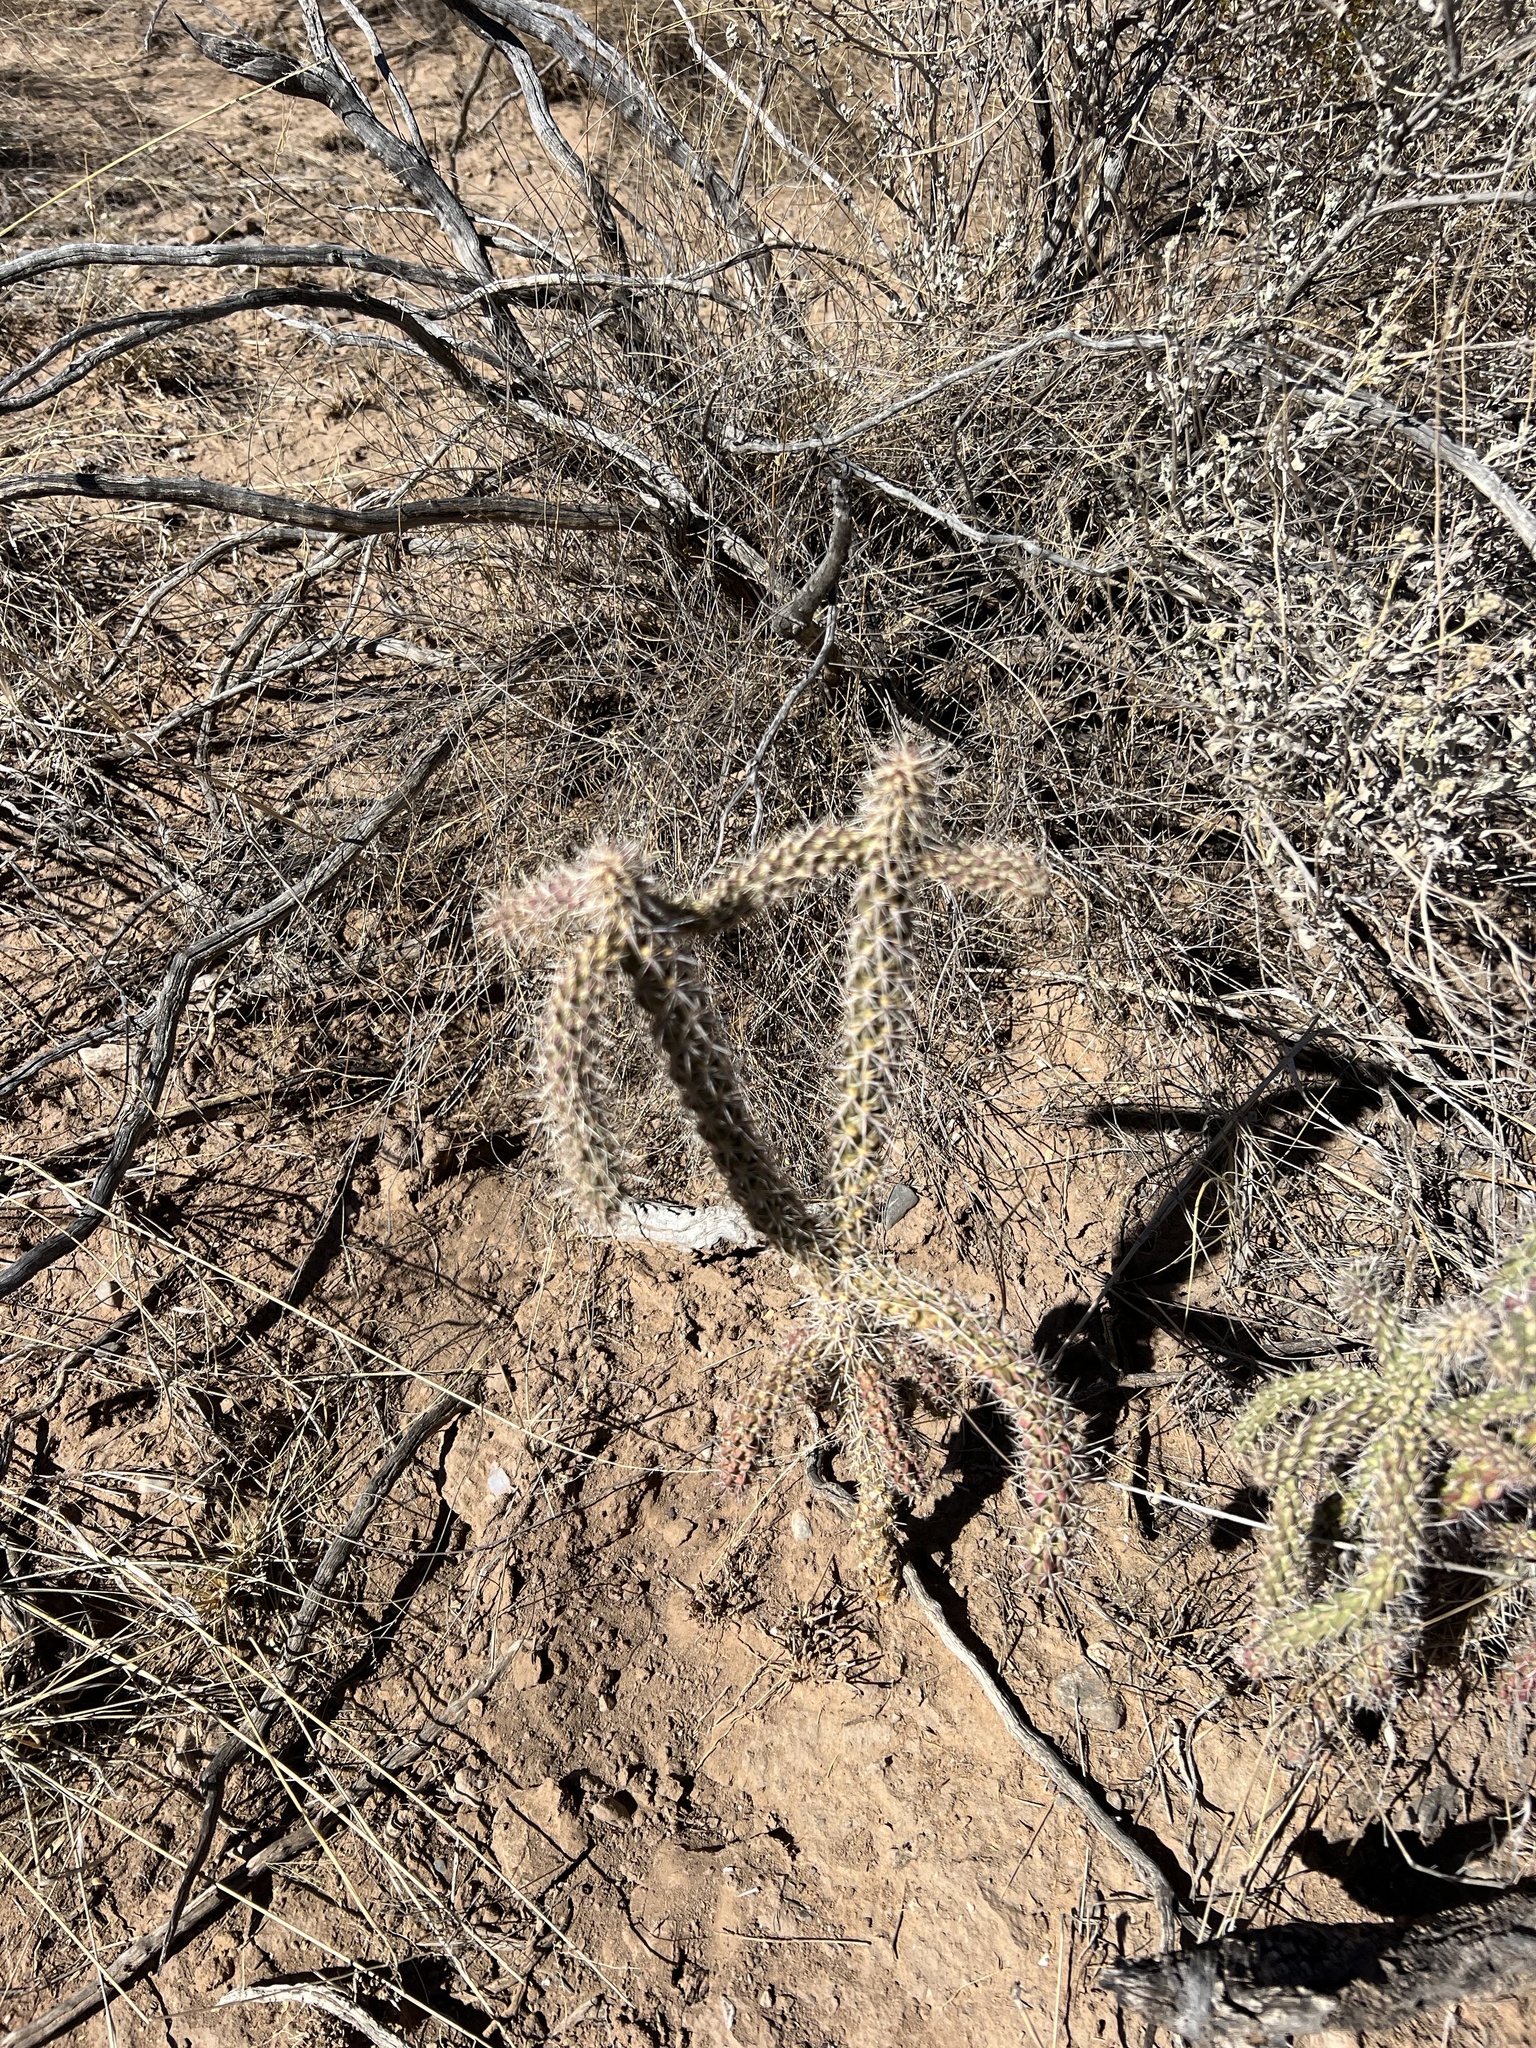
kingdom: Plantae
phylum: Tracheophyta
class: Magnoliopsida
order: Caryophyllales
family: Cactaceae
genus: Cylindropuntia
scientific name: Cylindropuntia imbricata
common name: Candelabrum cactus
